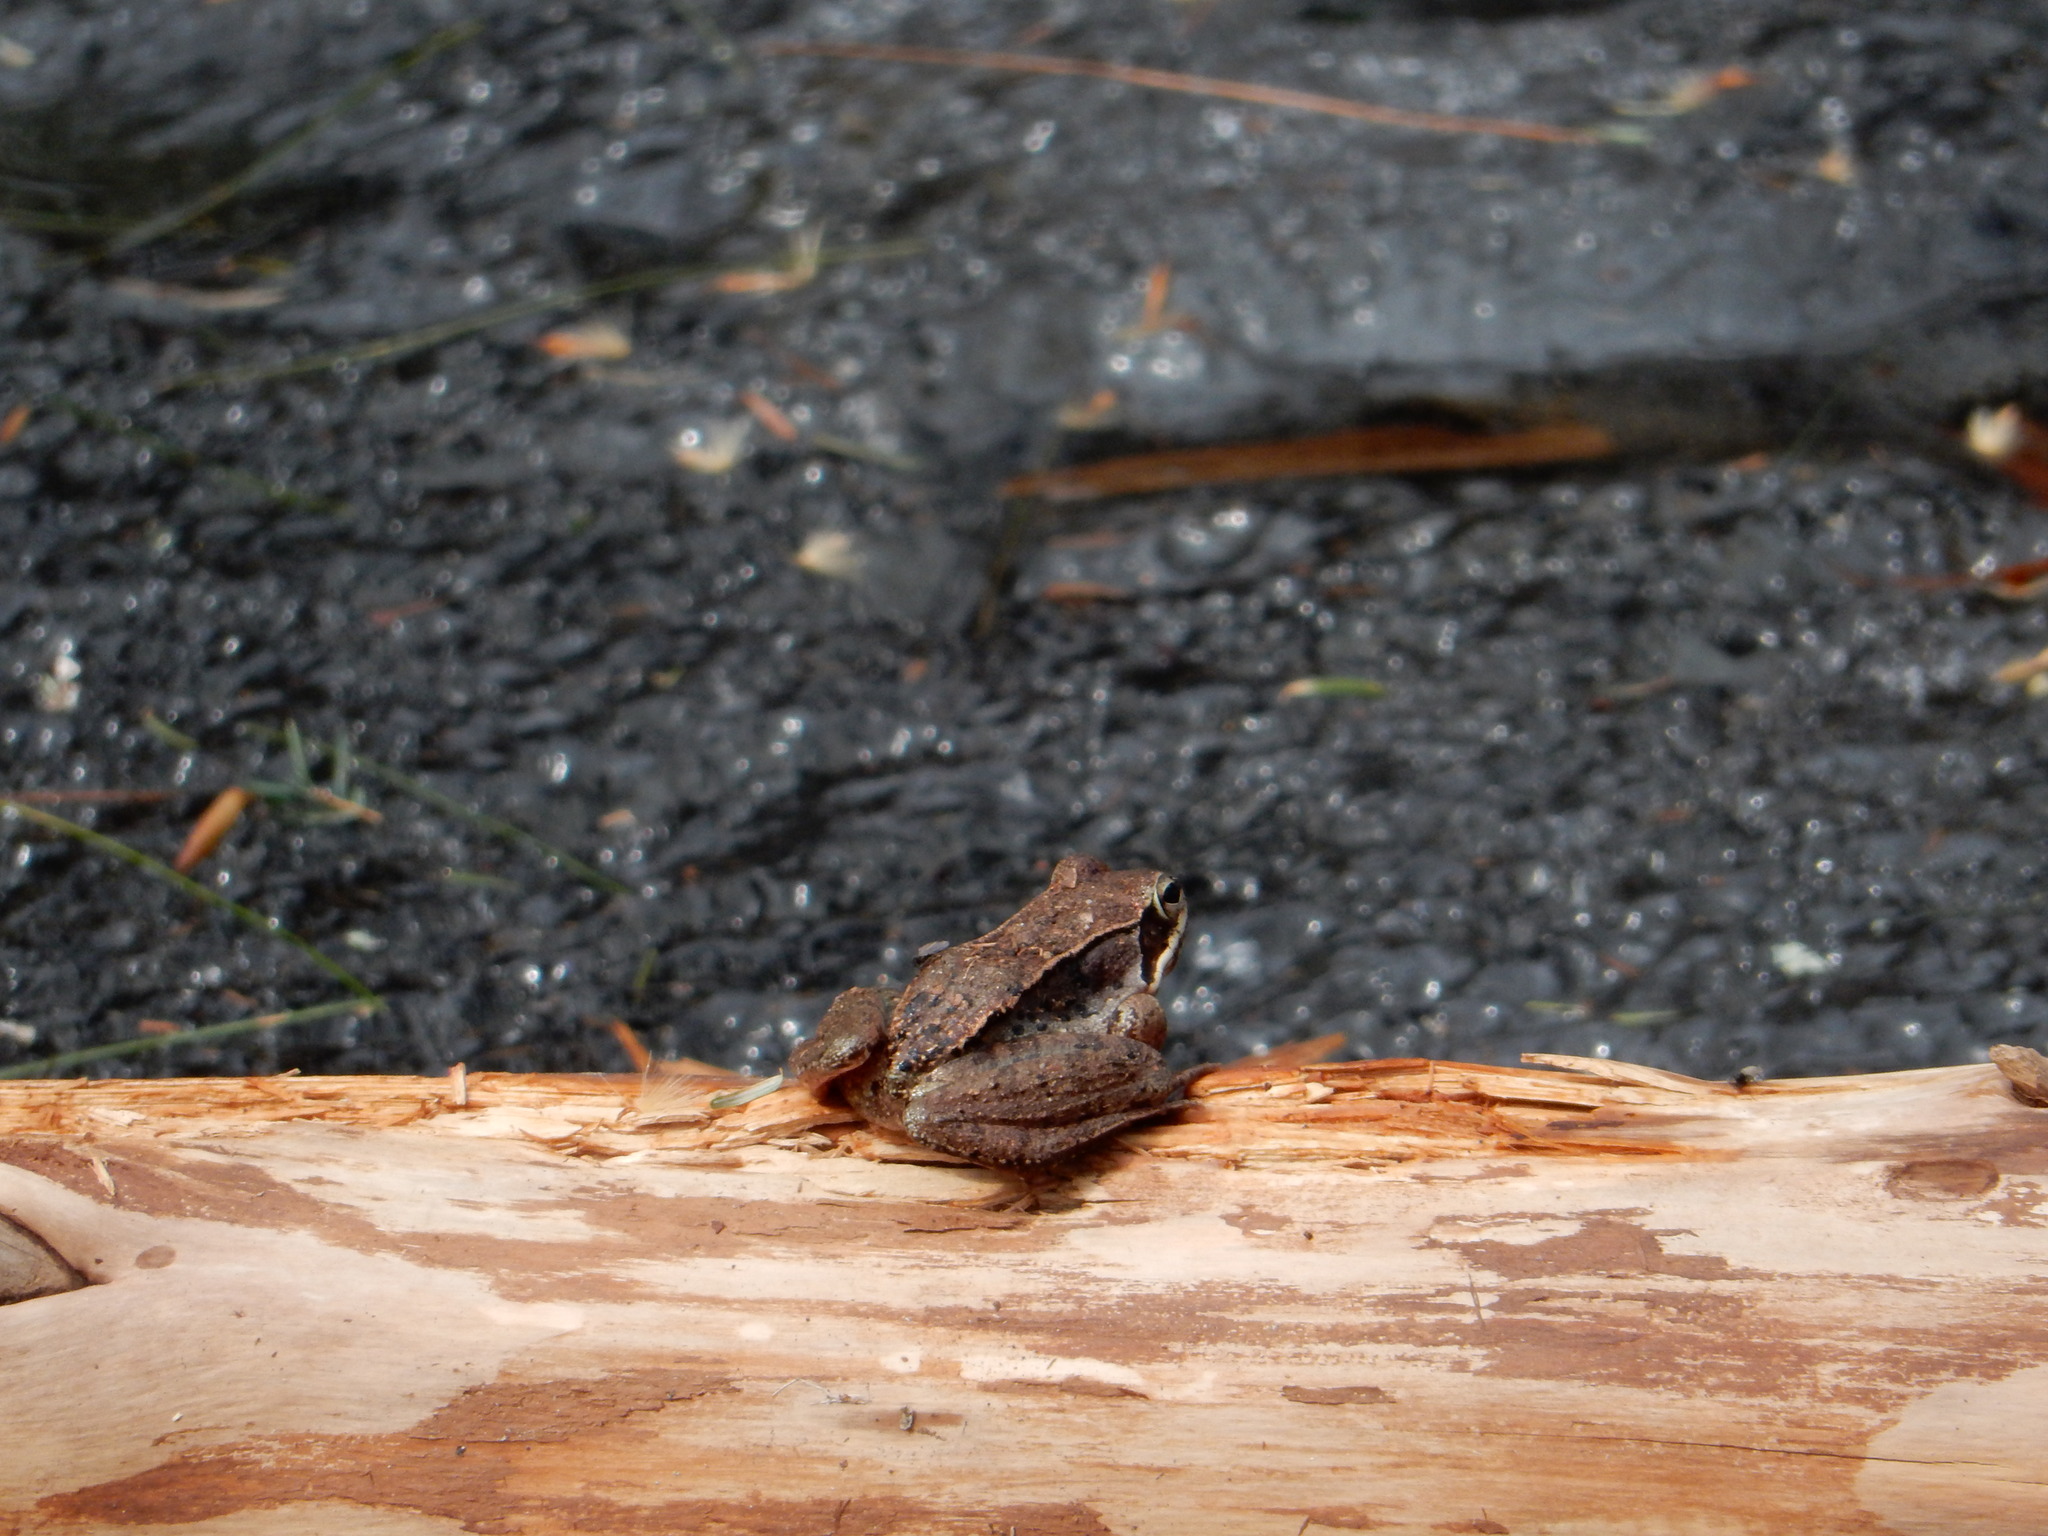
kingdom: Animalia
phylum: Chordata
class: Amphibia
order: Anura
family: Ranidae
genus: Lithobates
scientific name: Lithobates sylvaticus
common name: Wood frog
